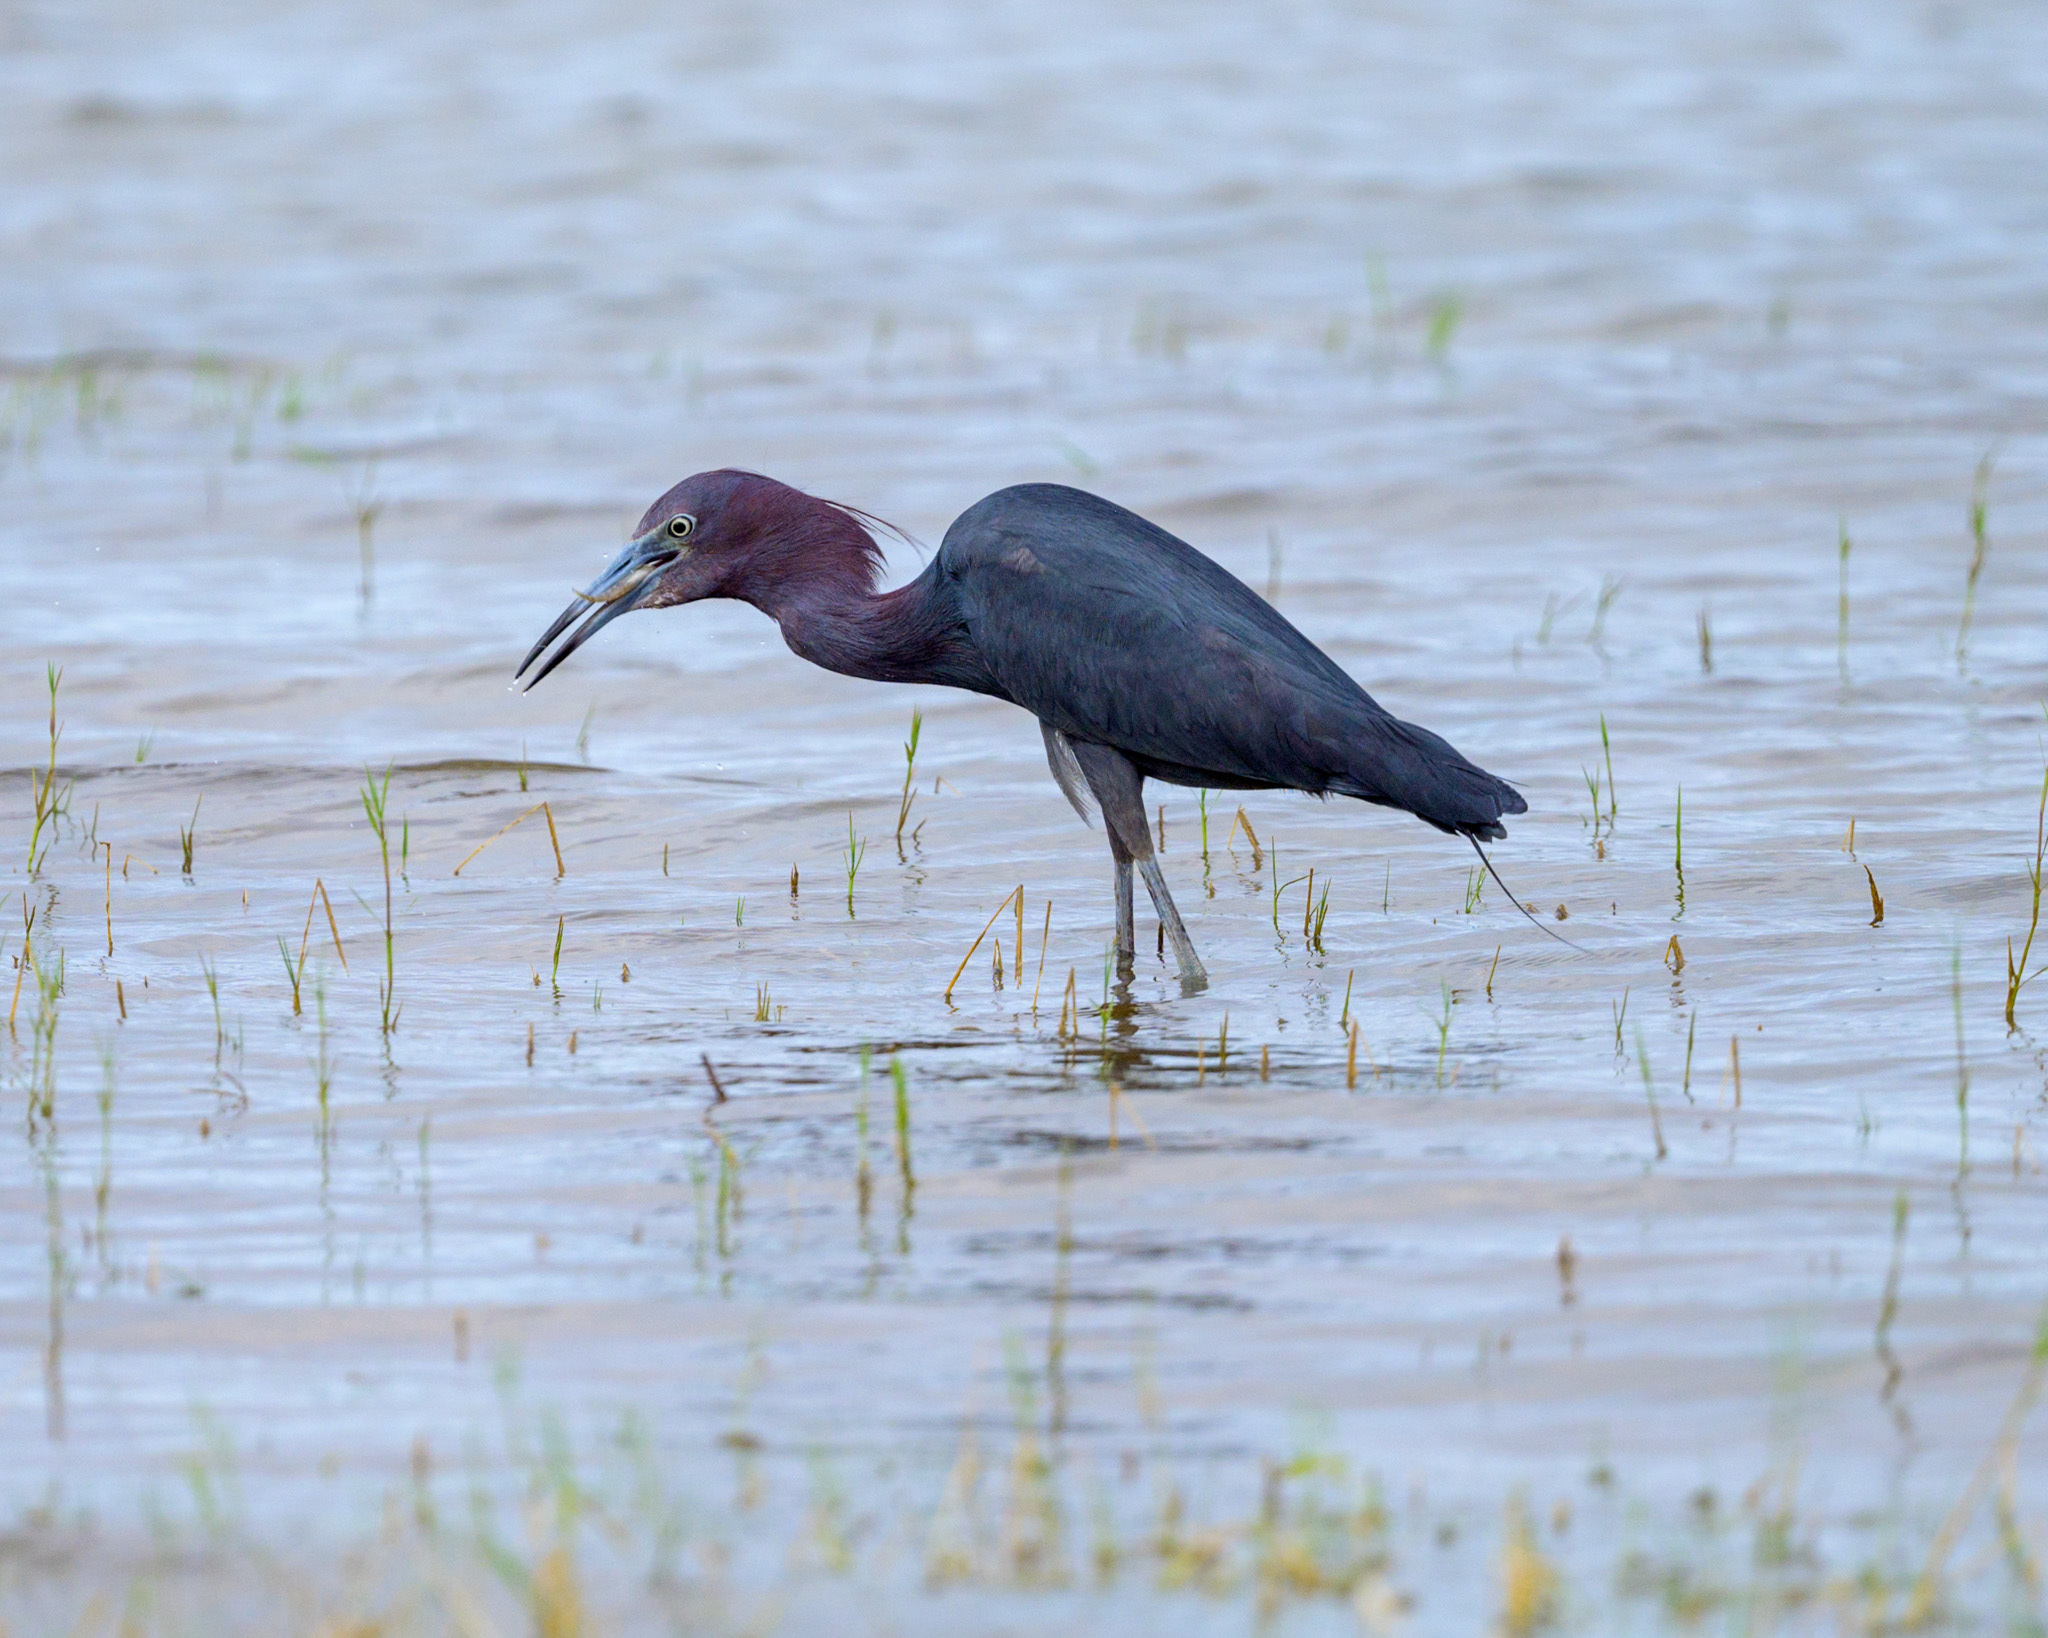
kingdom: Animalia
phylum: Chordata
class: Aves
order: Pelecaniformes
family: Ardeidae
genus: Egretta
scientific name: Egretta caerulea
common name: Little blue heron
